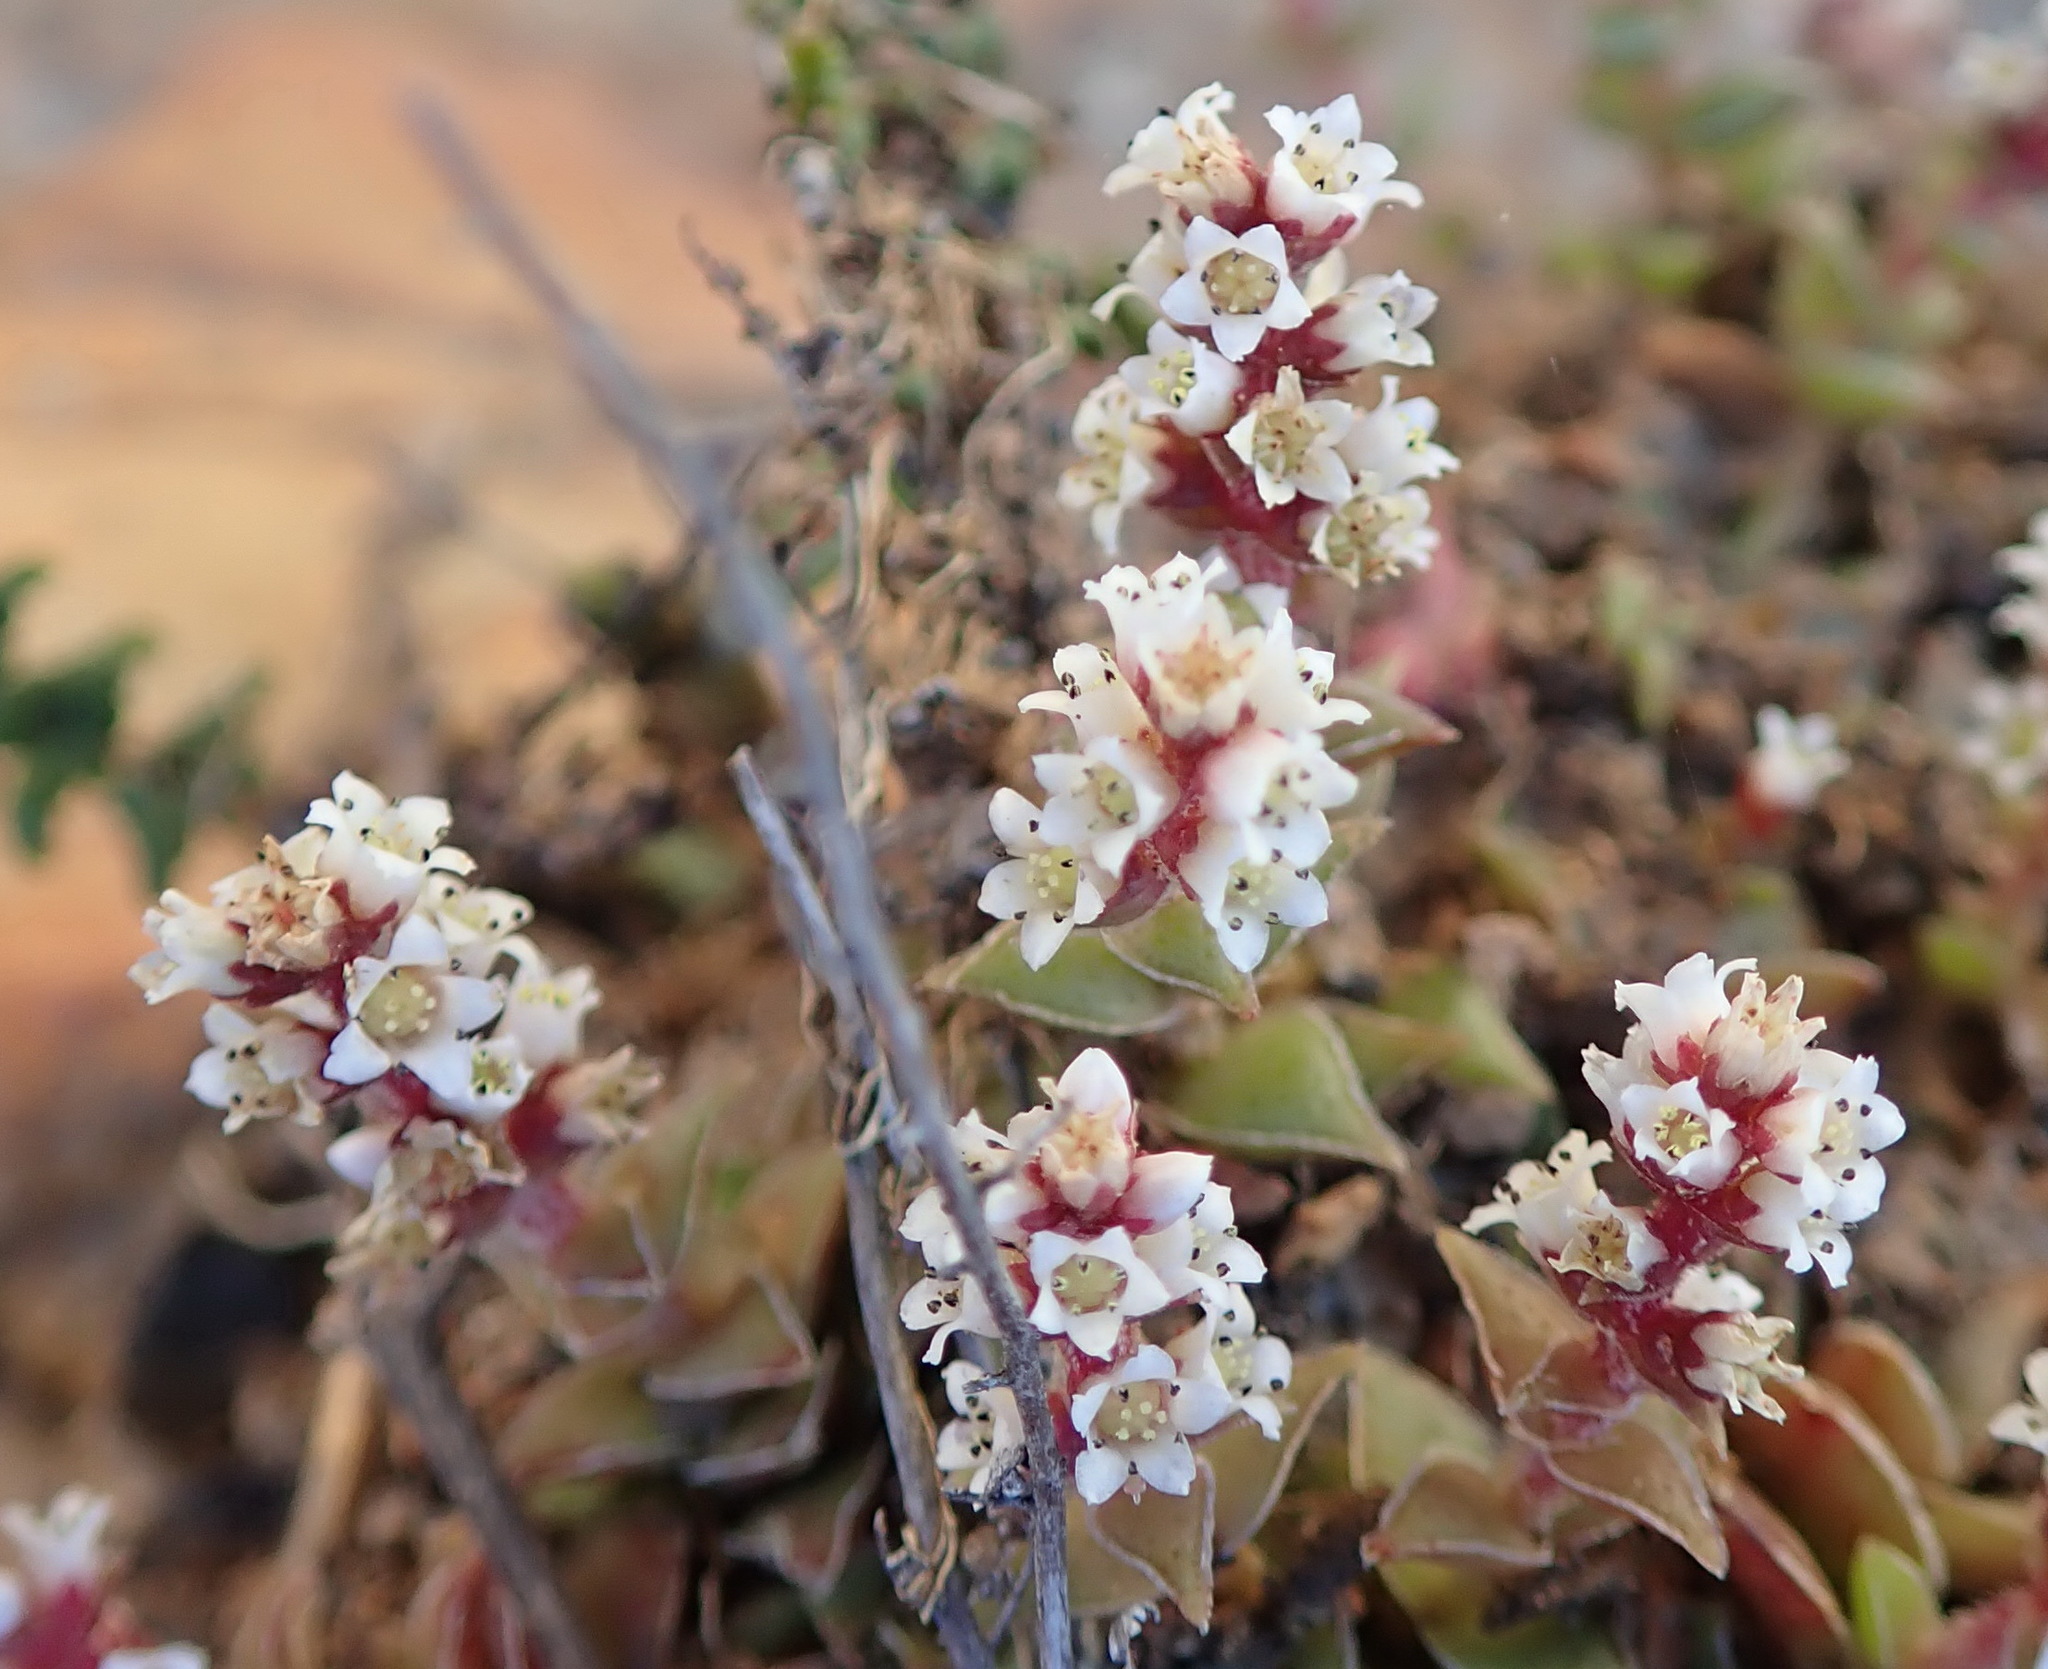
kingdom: Plantae
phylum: Tracheophyta
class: Magnoliopsida
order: Saxifragales
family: Crassulaceae
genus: Crassula
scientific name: Crassula capitella
